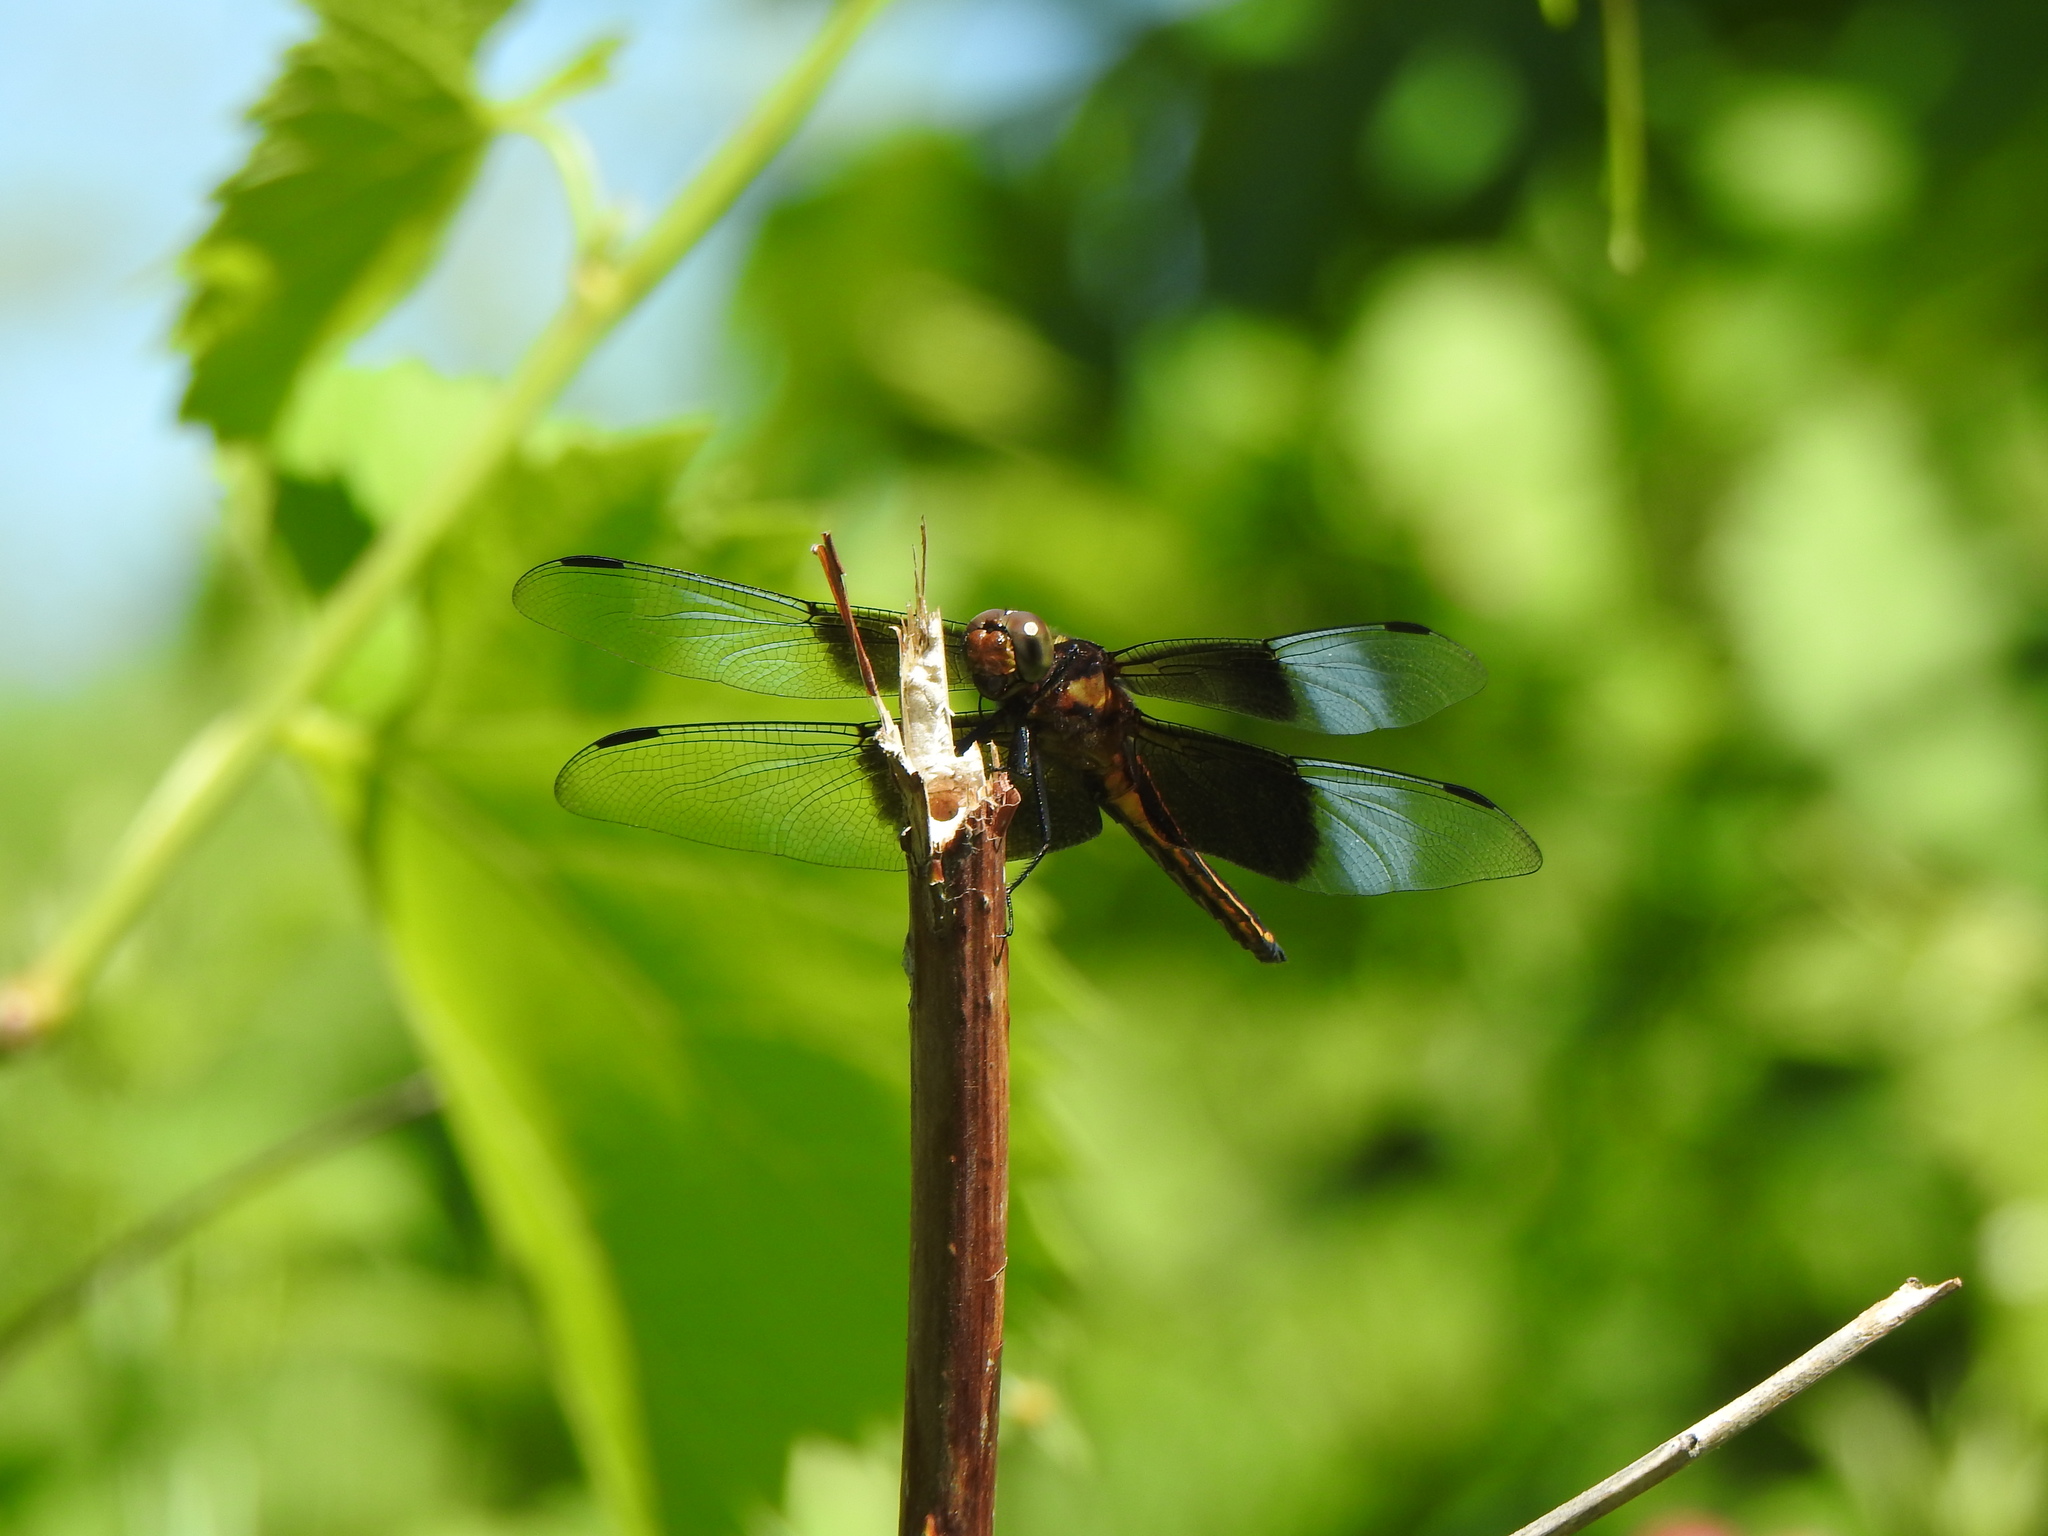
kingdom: Animalia
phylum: Arthropoda
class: Insecta
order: Odonata
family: Libellulidae
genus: Libellula
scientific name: Libellula luctuosa
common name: Widow skimmer
